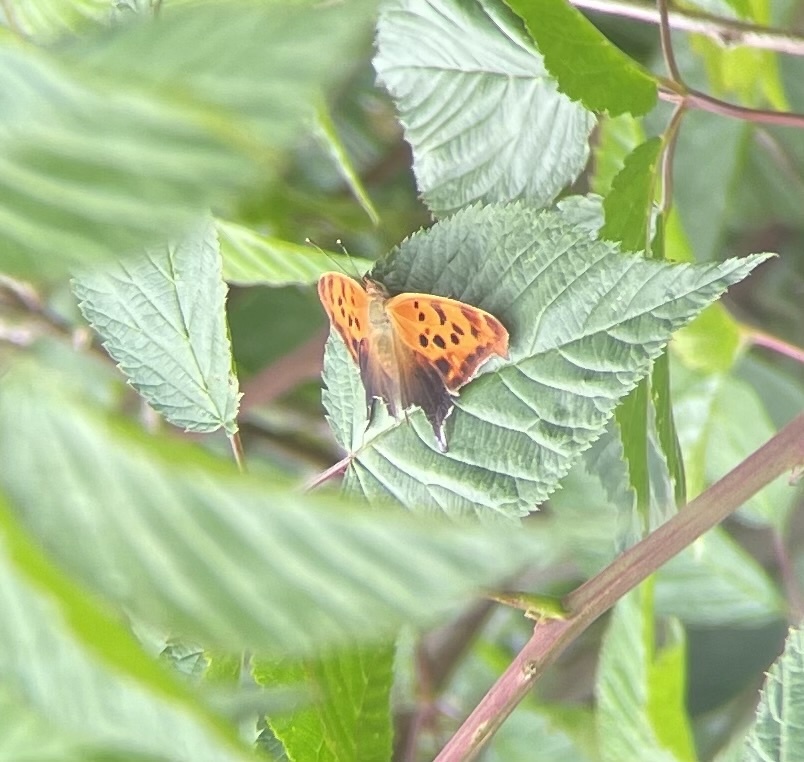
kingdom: Animalia
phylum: Arthropoda
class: Insecta
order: Lepidoptera
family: Nymphalidae
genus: Polygonia
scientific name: Polygonia interrogationis
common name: Question mark
